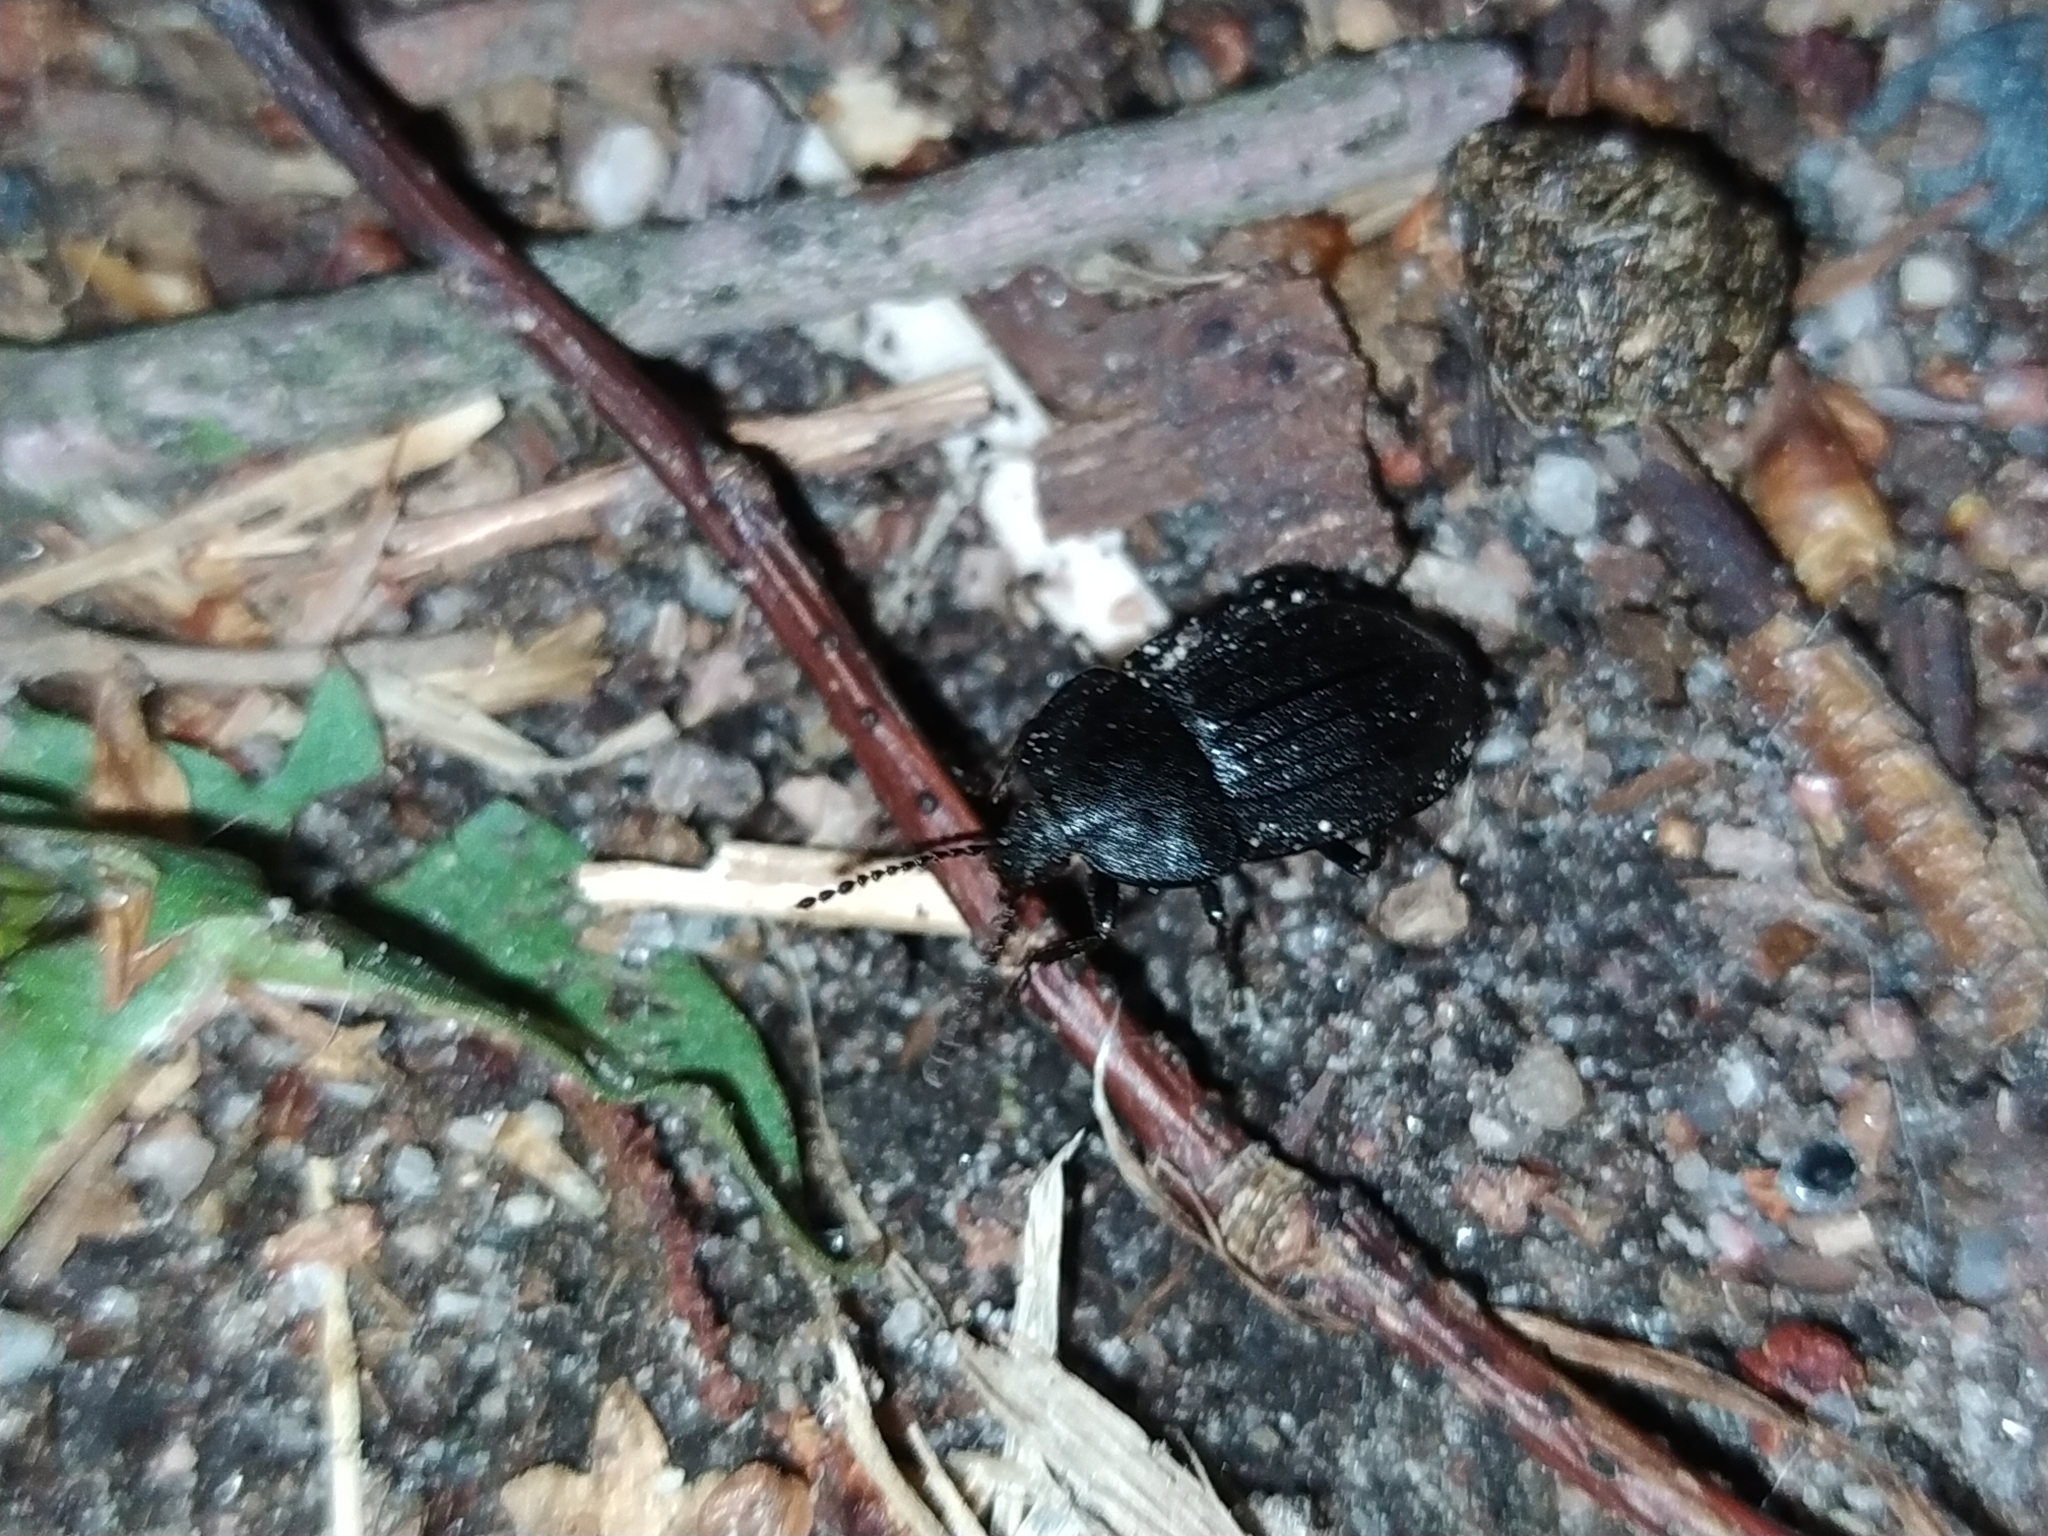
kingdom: Animalia
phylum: Arthropoda
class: Insecta
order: Coleoptera
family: Staphylinidae
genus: Silpha
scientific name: Silpha atrata
